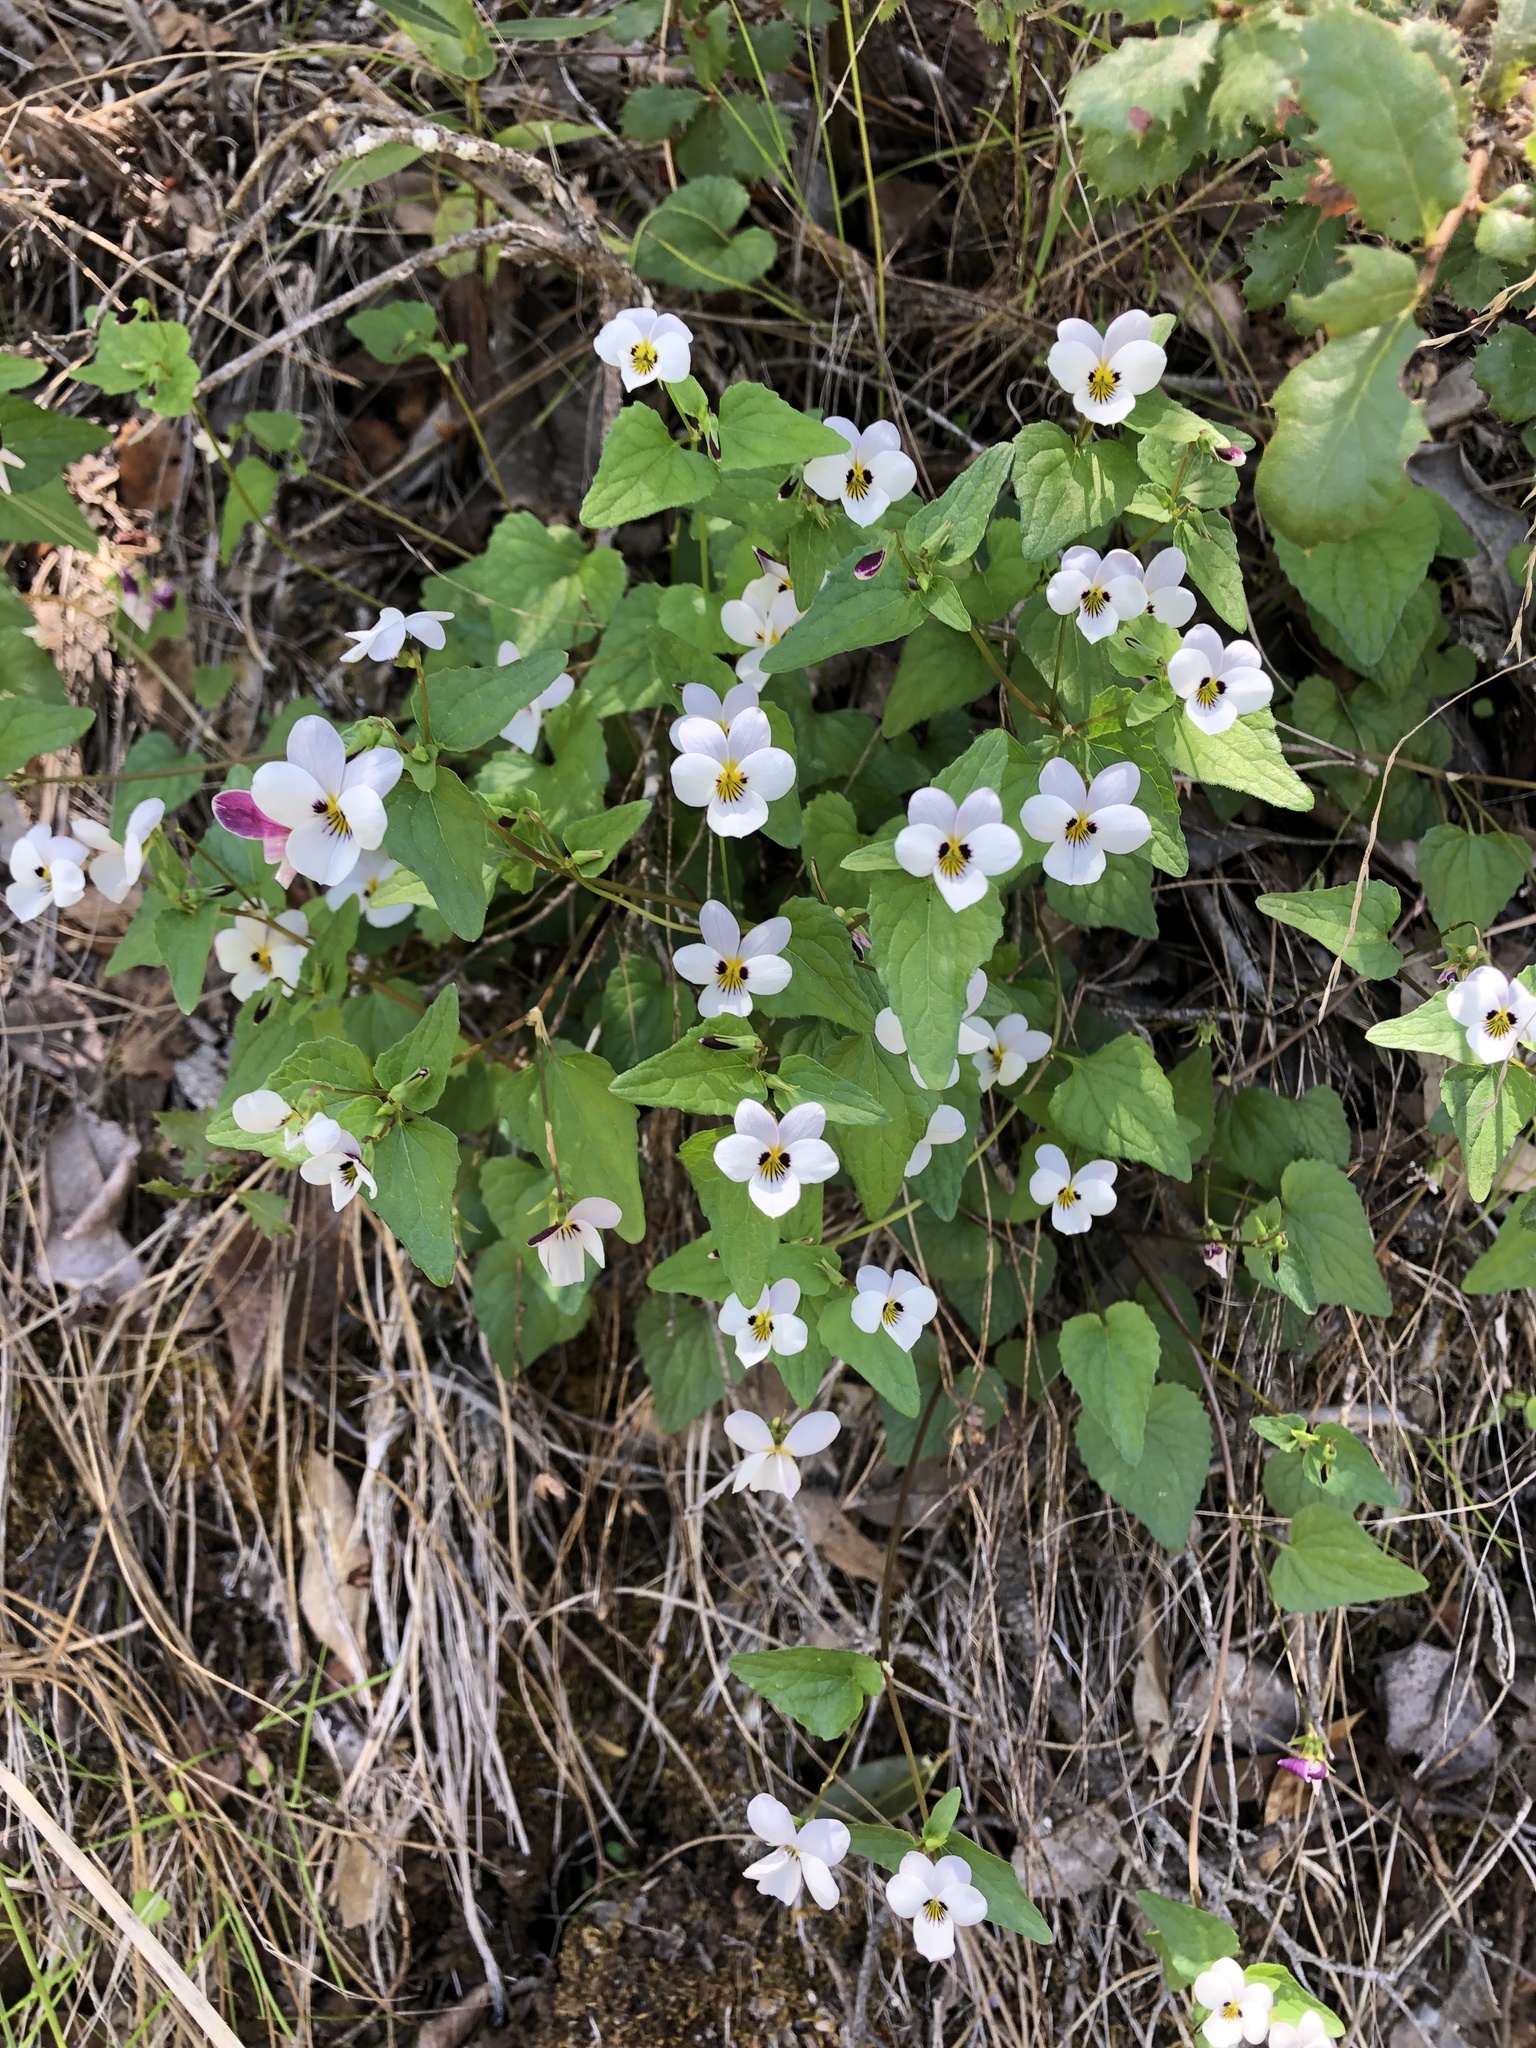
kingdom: Plantae
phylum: Tracheophyta
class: Magnoliopsida
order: Malpighiales
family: Violaceae
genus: Viola
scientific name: Viola ocellata
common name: Western heart's ease
